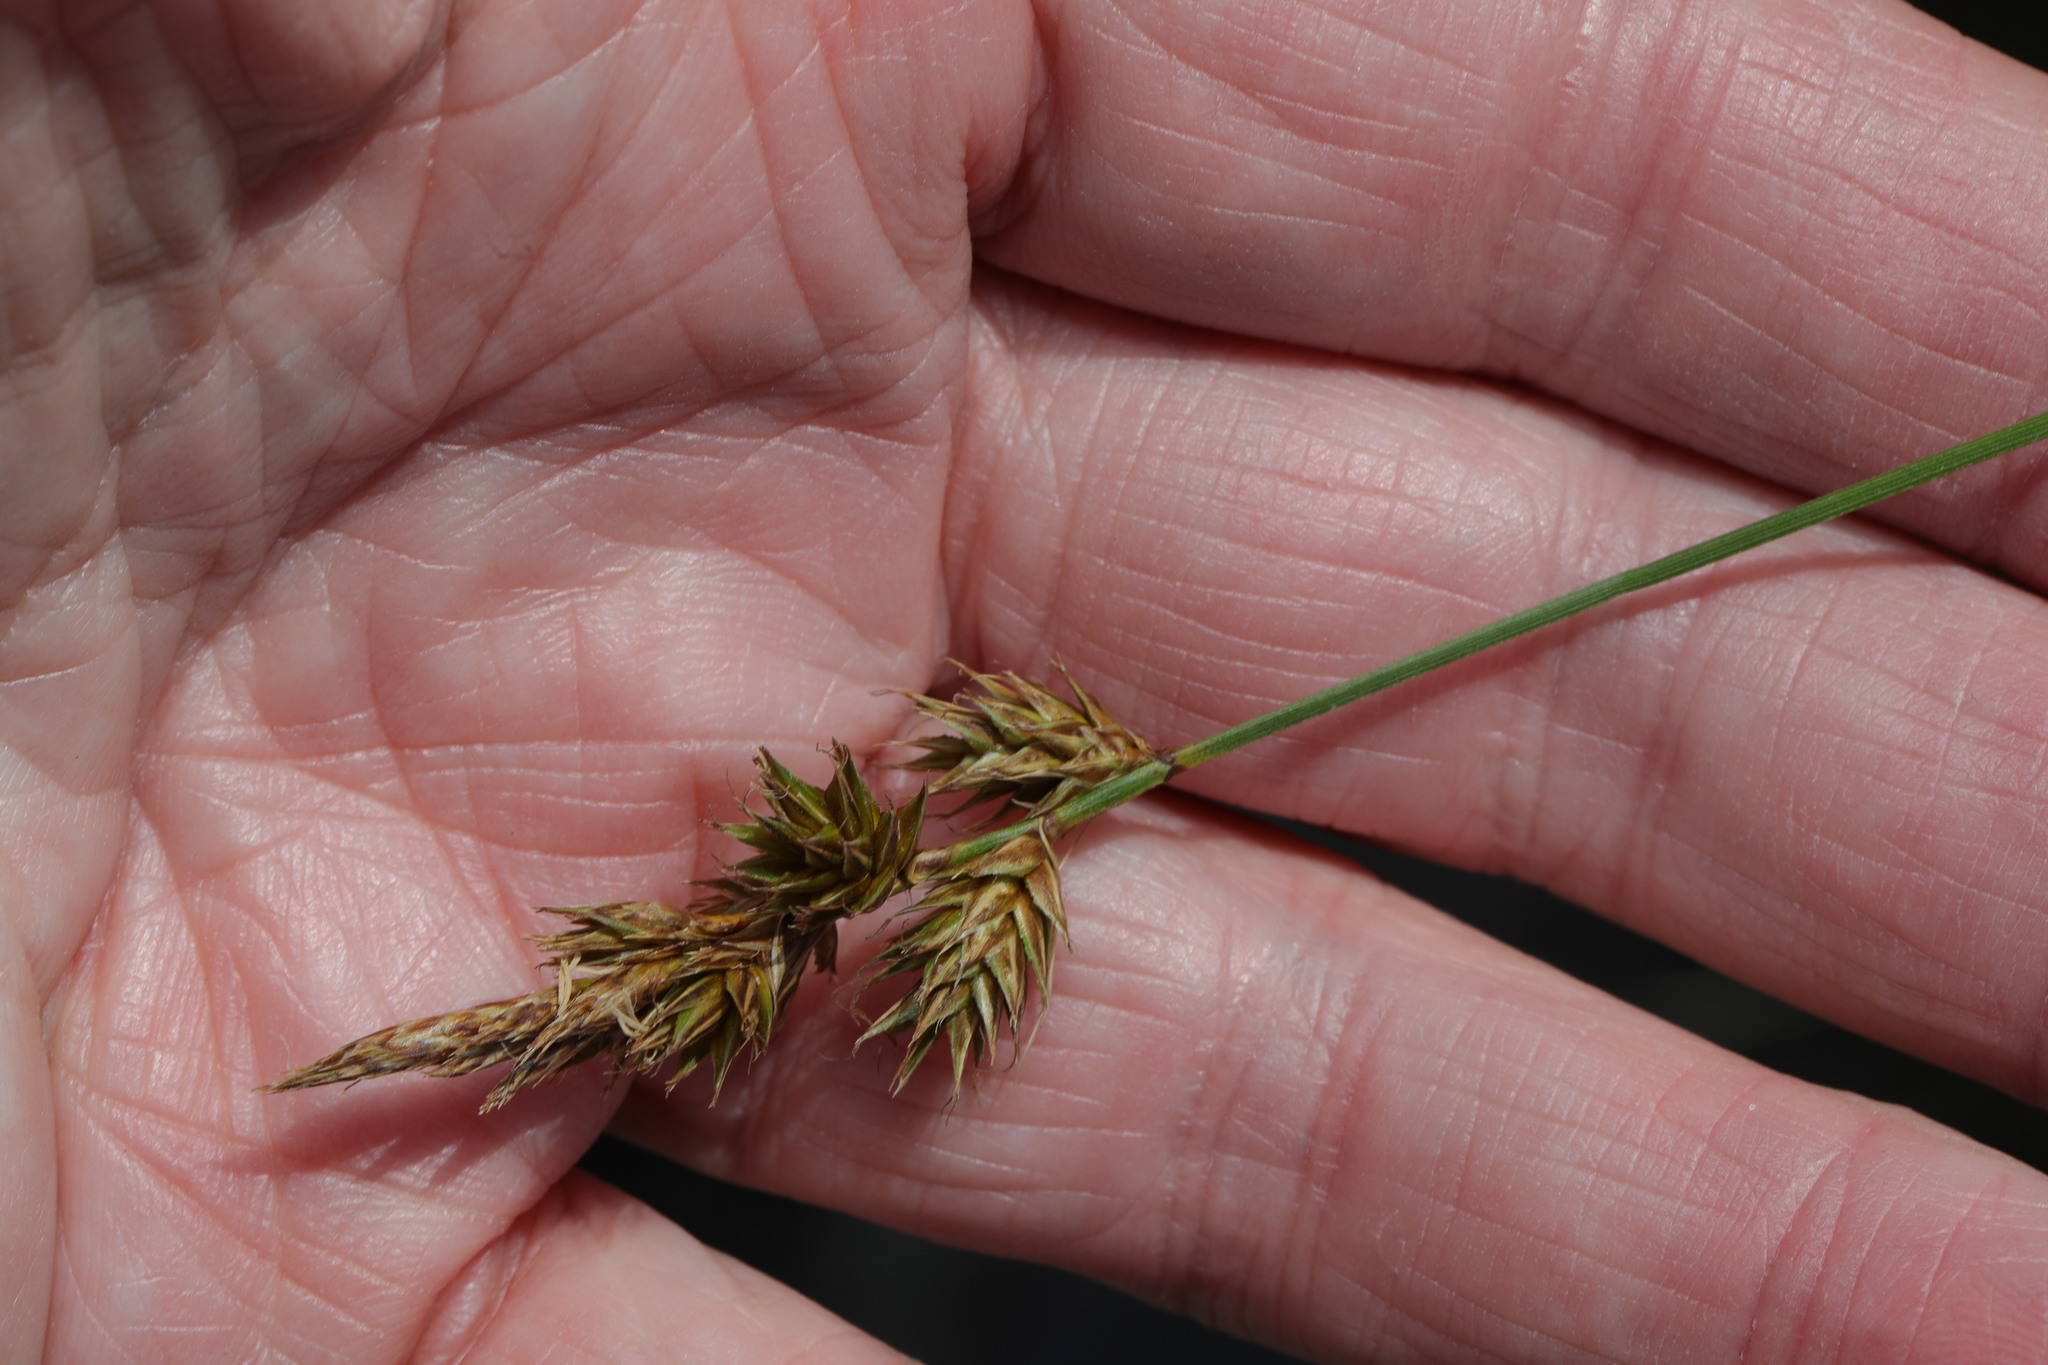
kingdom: Plantae
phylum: Tracheophyta
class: Liliopsida
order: Poales
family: Cyperaceae
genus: Carex
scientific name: Carex arenaria
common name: Sand sedge
